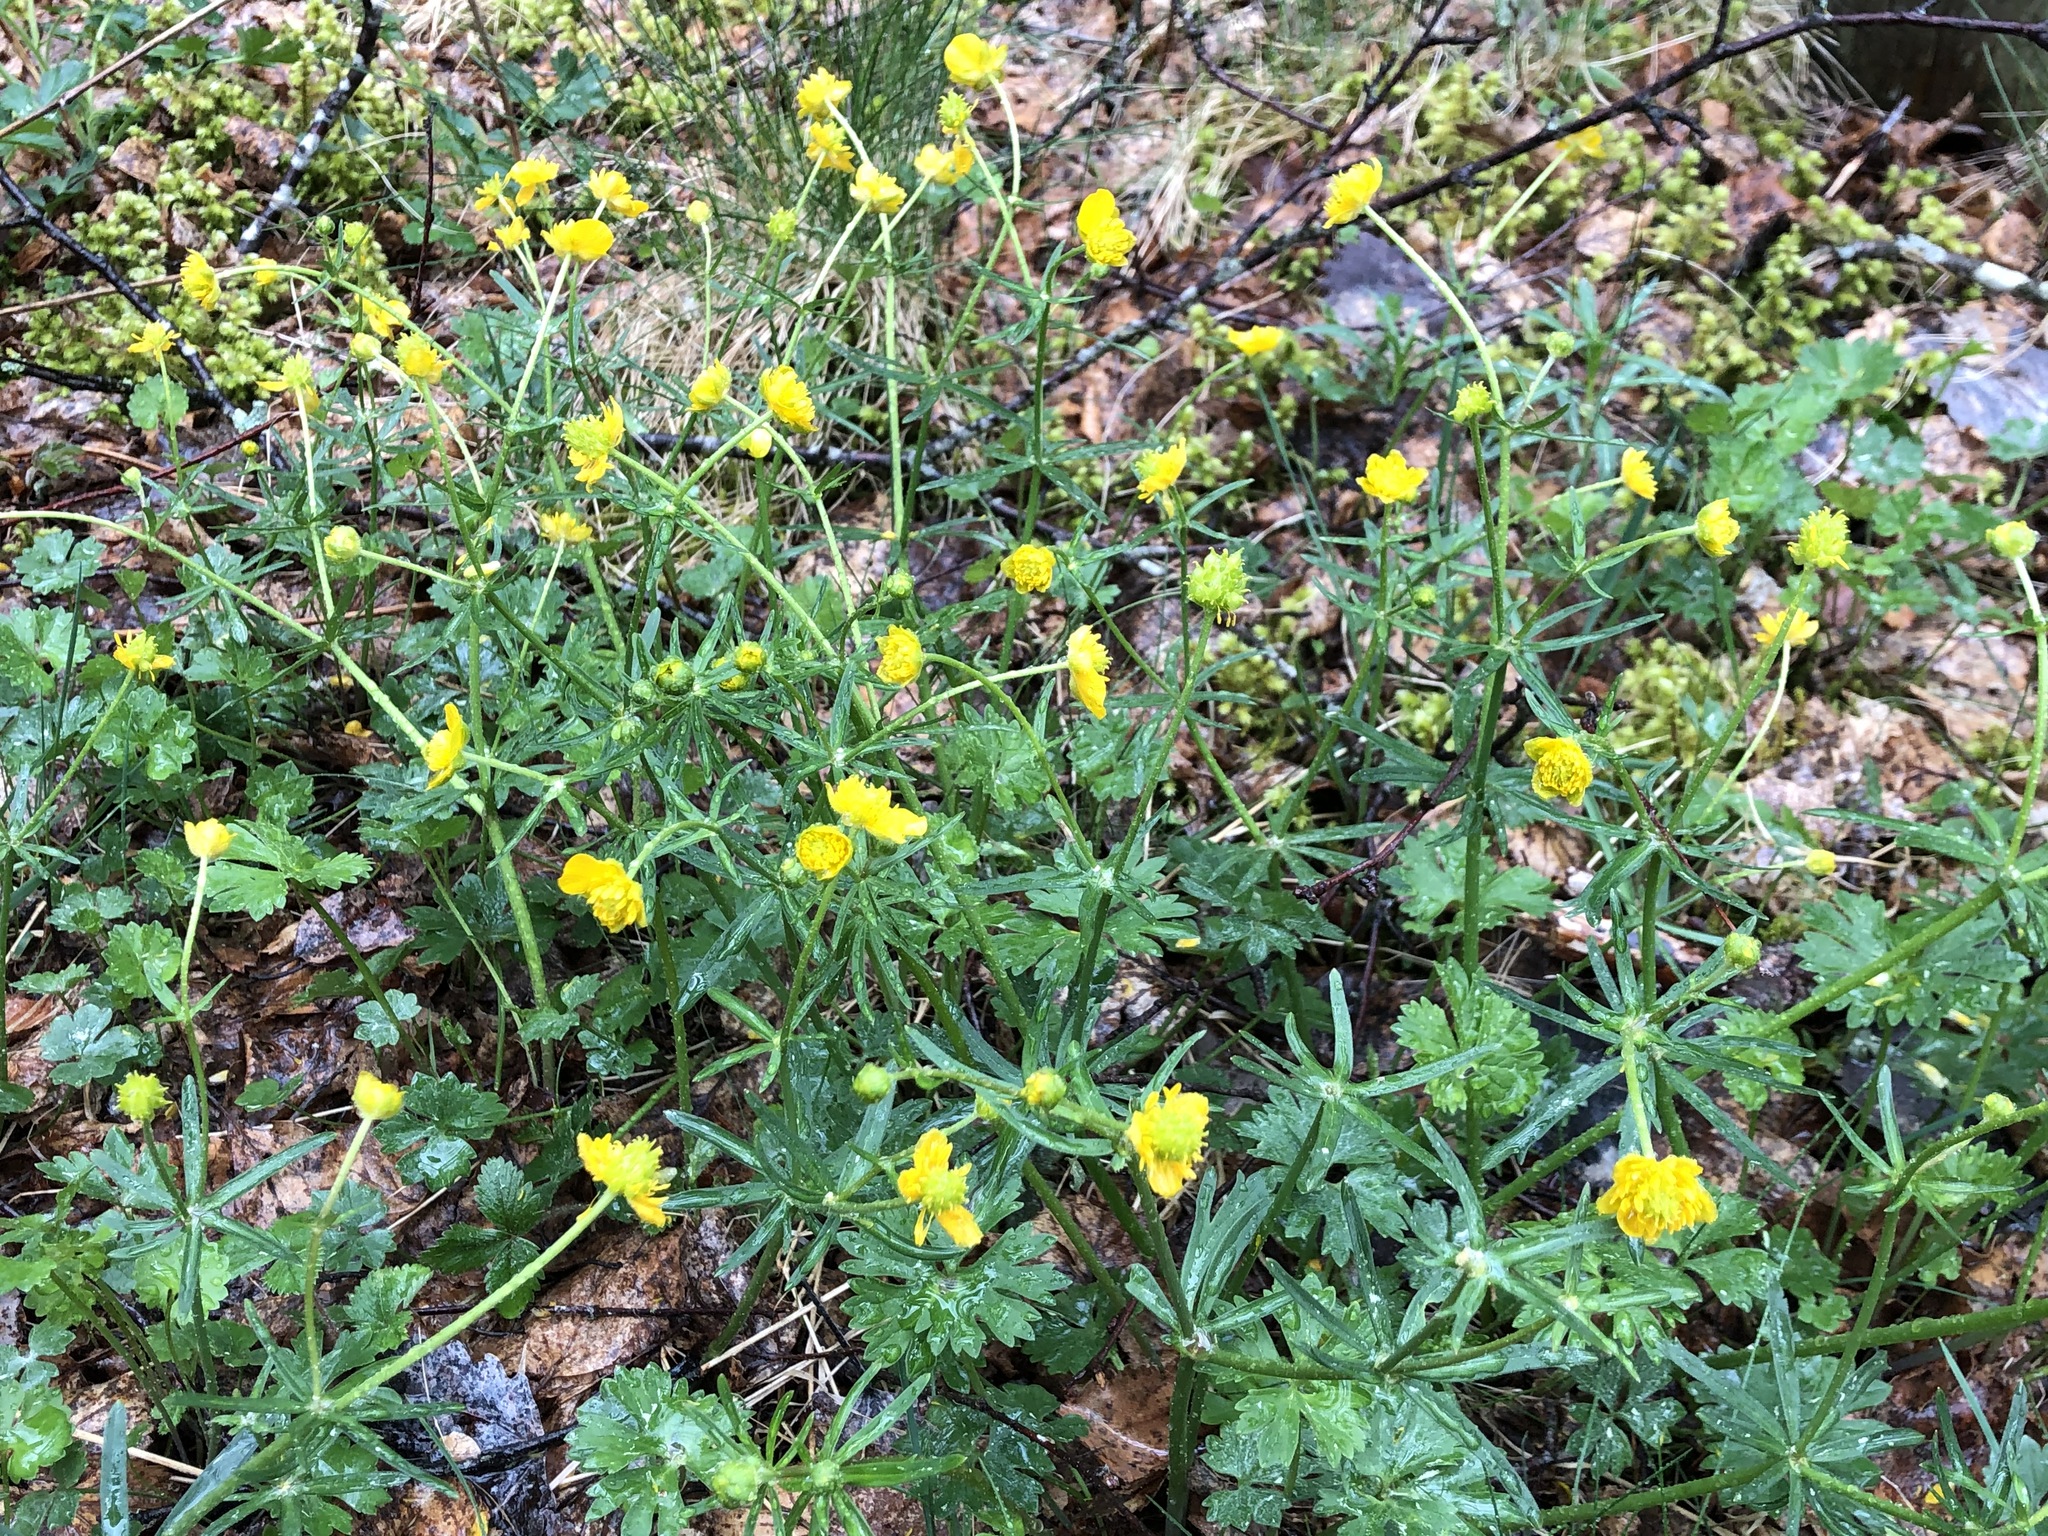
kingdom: Plantae
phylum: Tracheophyta
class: Magnoliopsida
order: Ranunculales
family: Ranunculaceae
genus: Ranunculus
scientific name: Ranunculus auricomus
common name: Goldilocks buttercup
